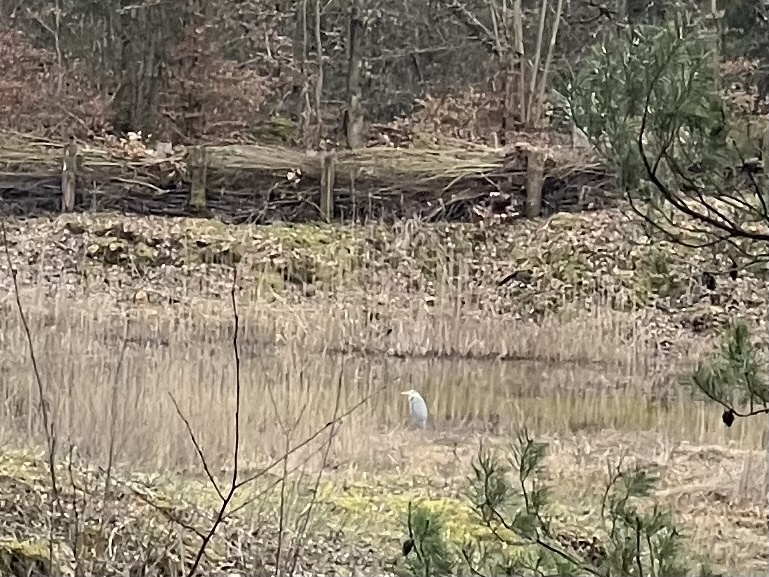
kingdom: Animalia
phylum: Chordata
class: Aves
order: Pelecaniformes
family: Ardeidae
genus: Ardea
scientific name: Ardea cinerea
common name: Grey heron
